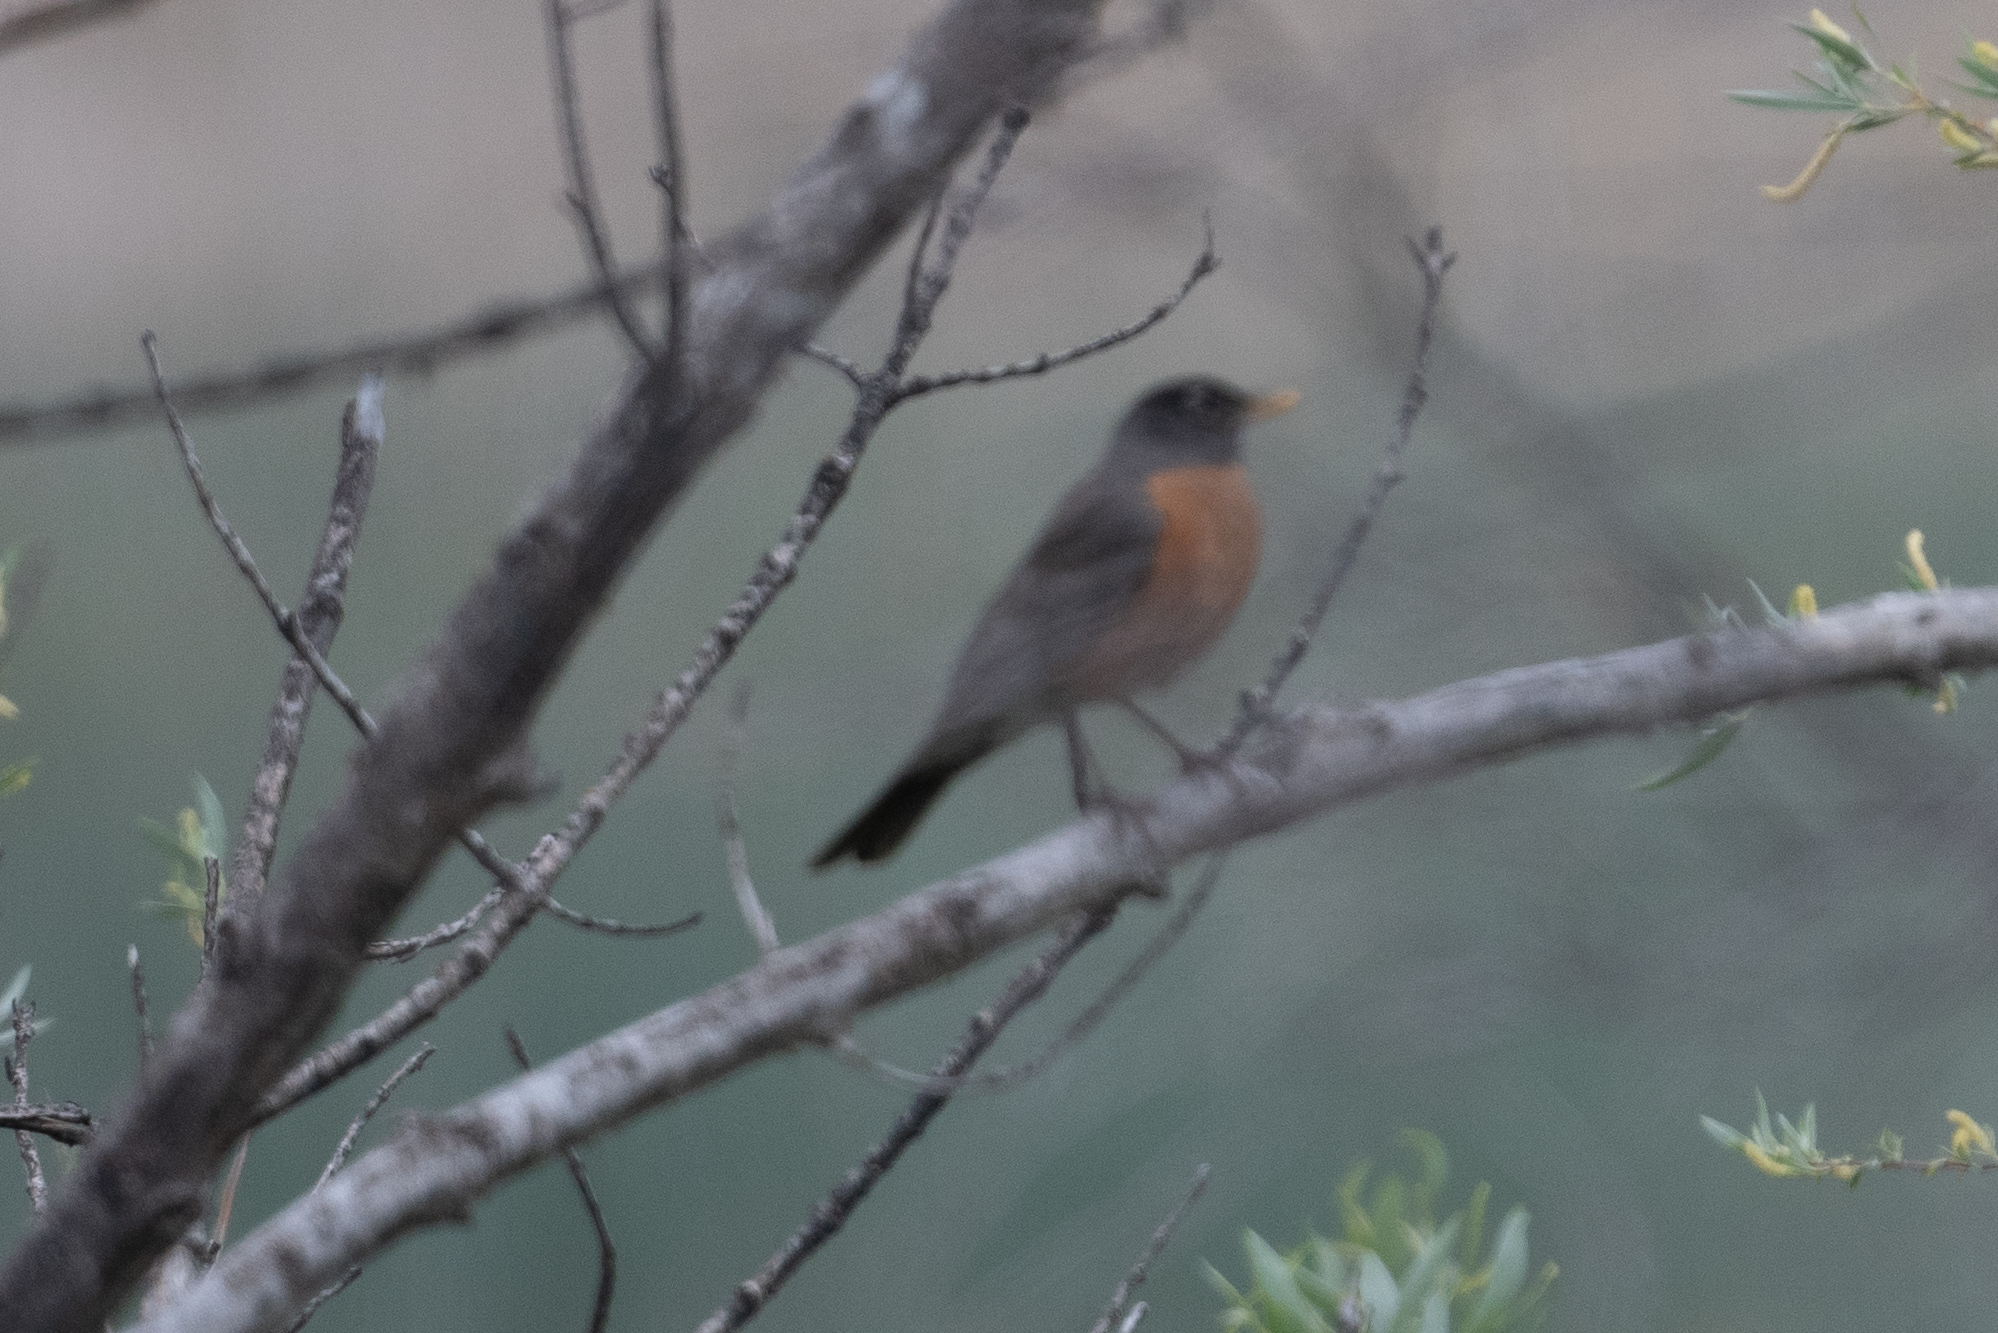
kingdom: Animalia
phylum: Chordata
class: Aves
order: Passeriformes
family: Turdidae
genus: Turdus
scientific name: Turdus migratorius
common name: American robin
